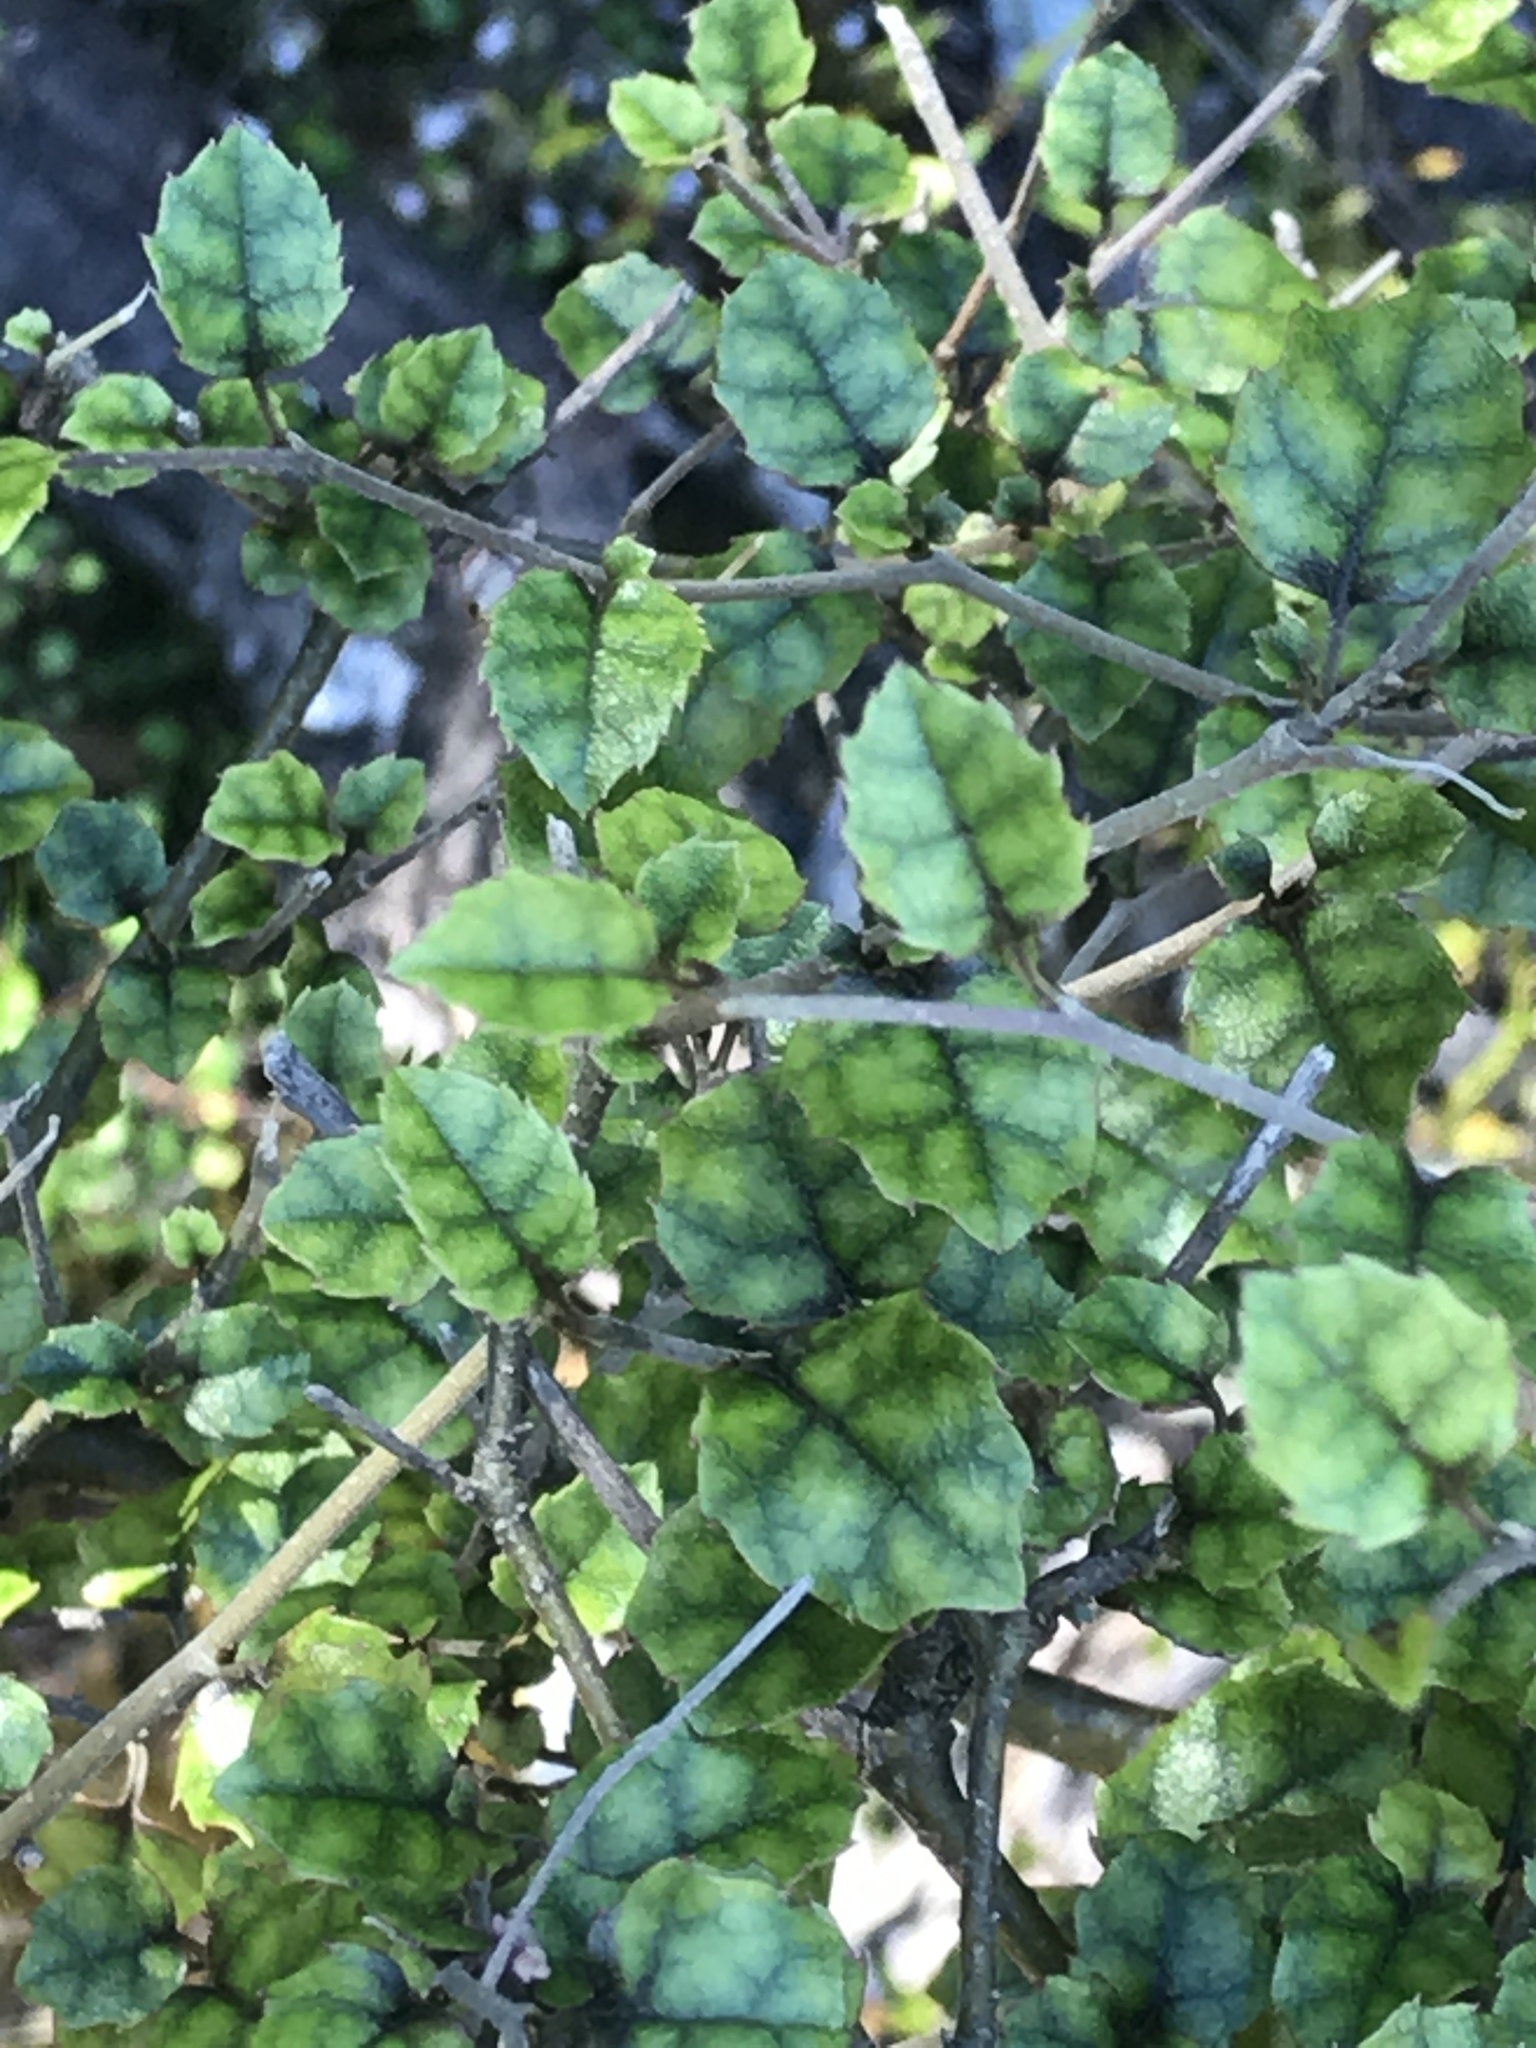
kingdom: Plantae
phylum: Tracheophyta
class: Magnoliopsida
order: Asterales
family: Rousseaceae
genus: Carpodetus
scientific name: Carpodetus serratus
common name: White mapau
